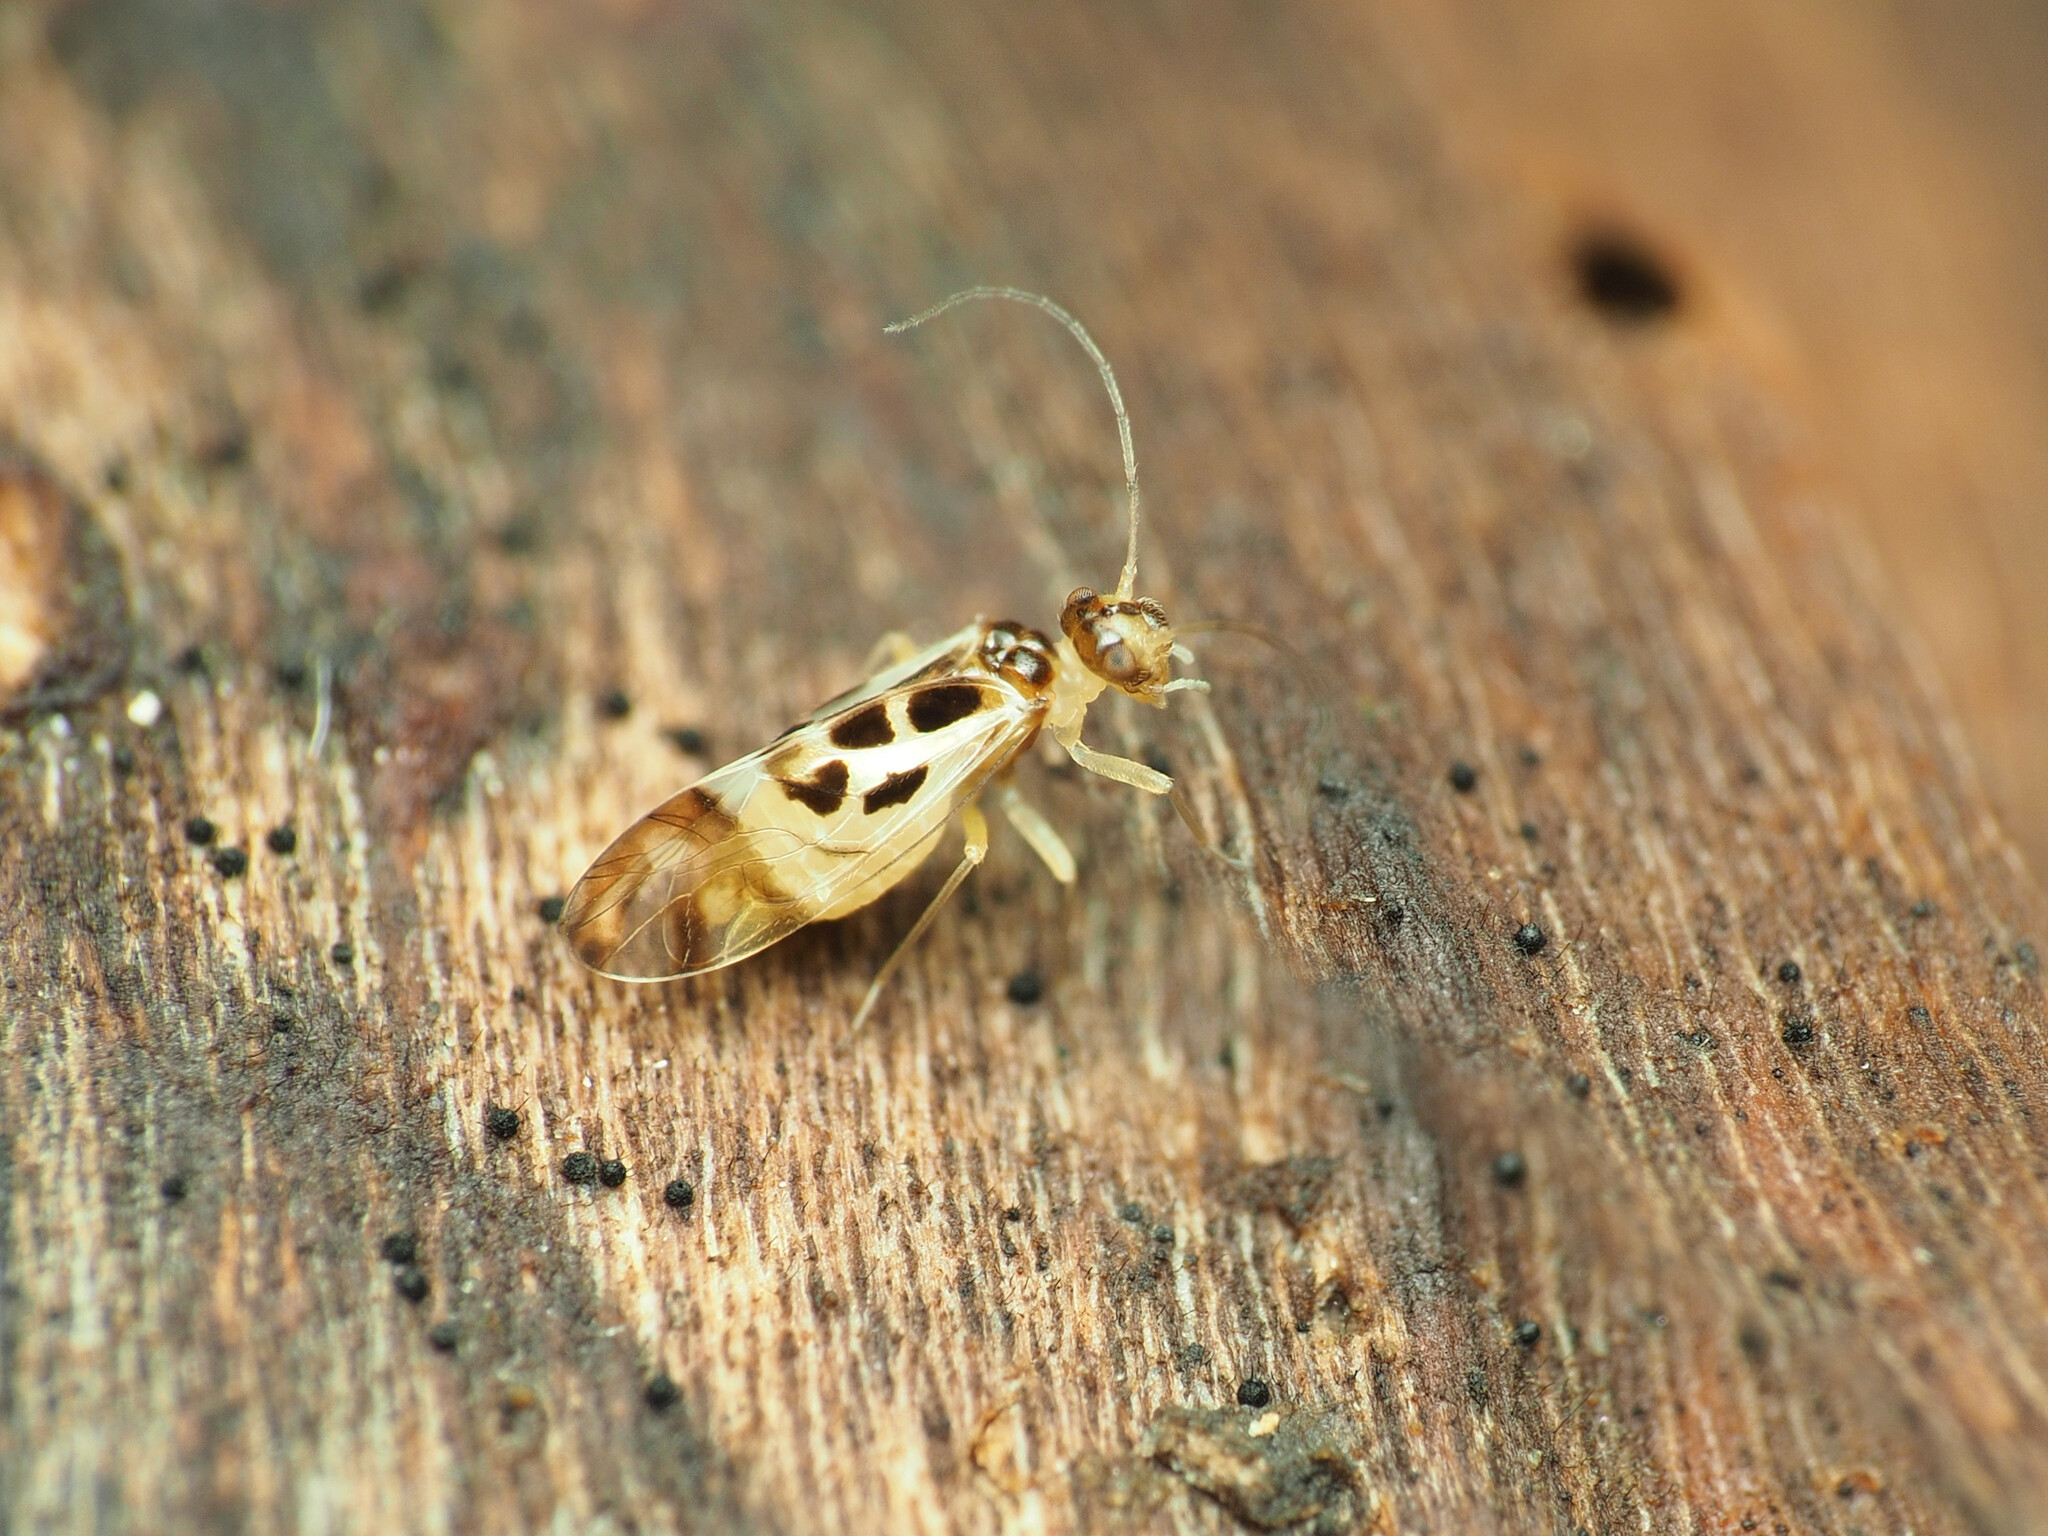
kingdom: Animalia
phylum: Arthropoda
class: Insecta
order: Psocodea
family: Stenopsocidae
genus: Graphopsocus
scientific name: Graphopsocus cruciatus
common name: Lizard bark louse
